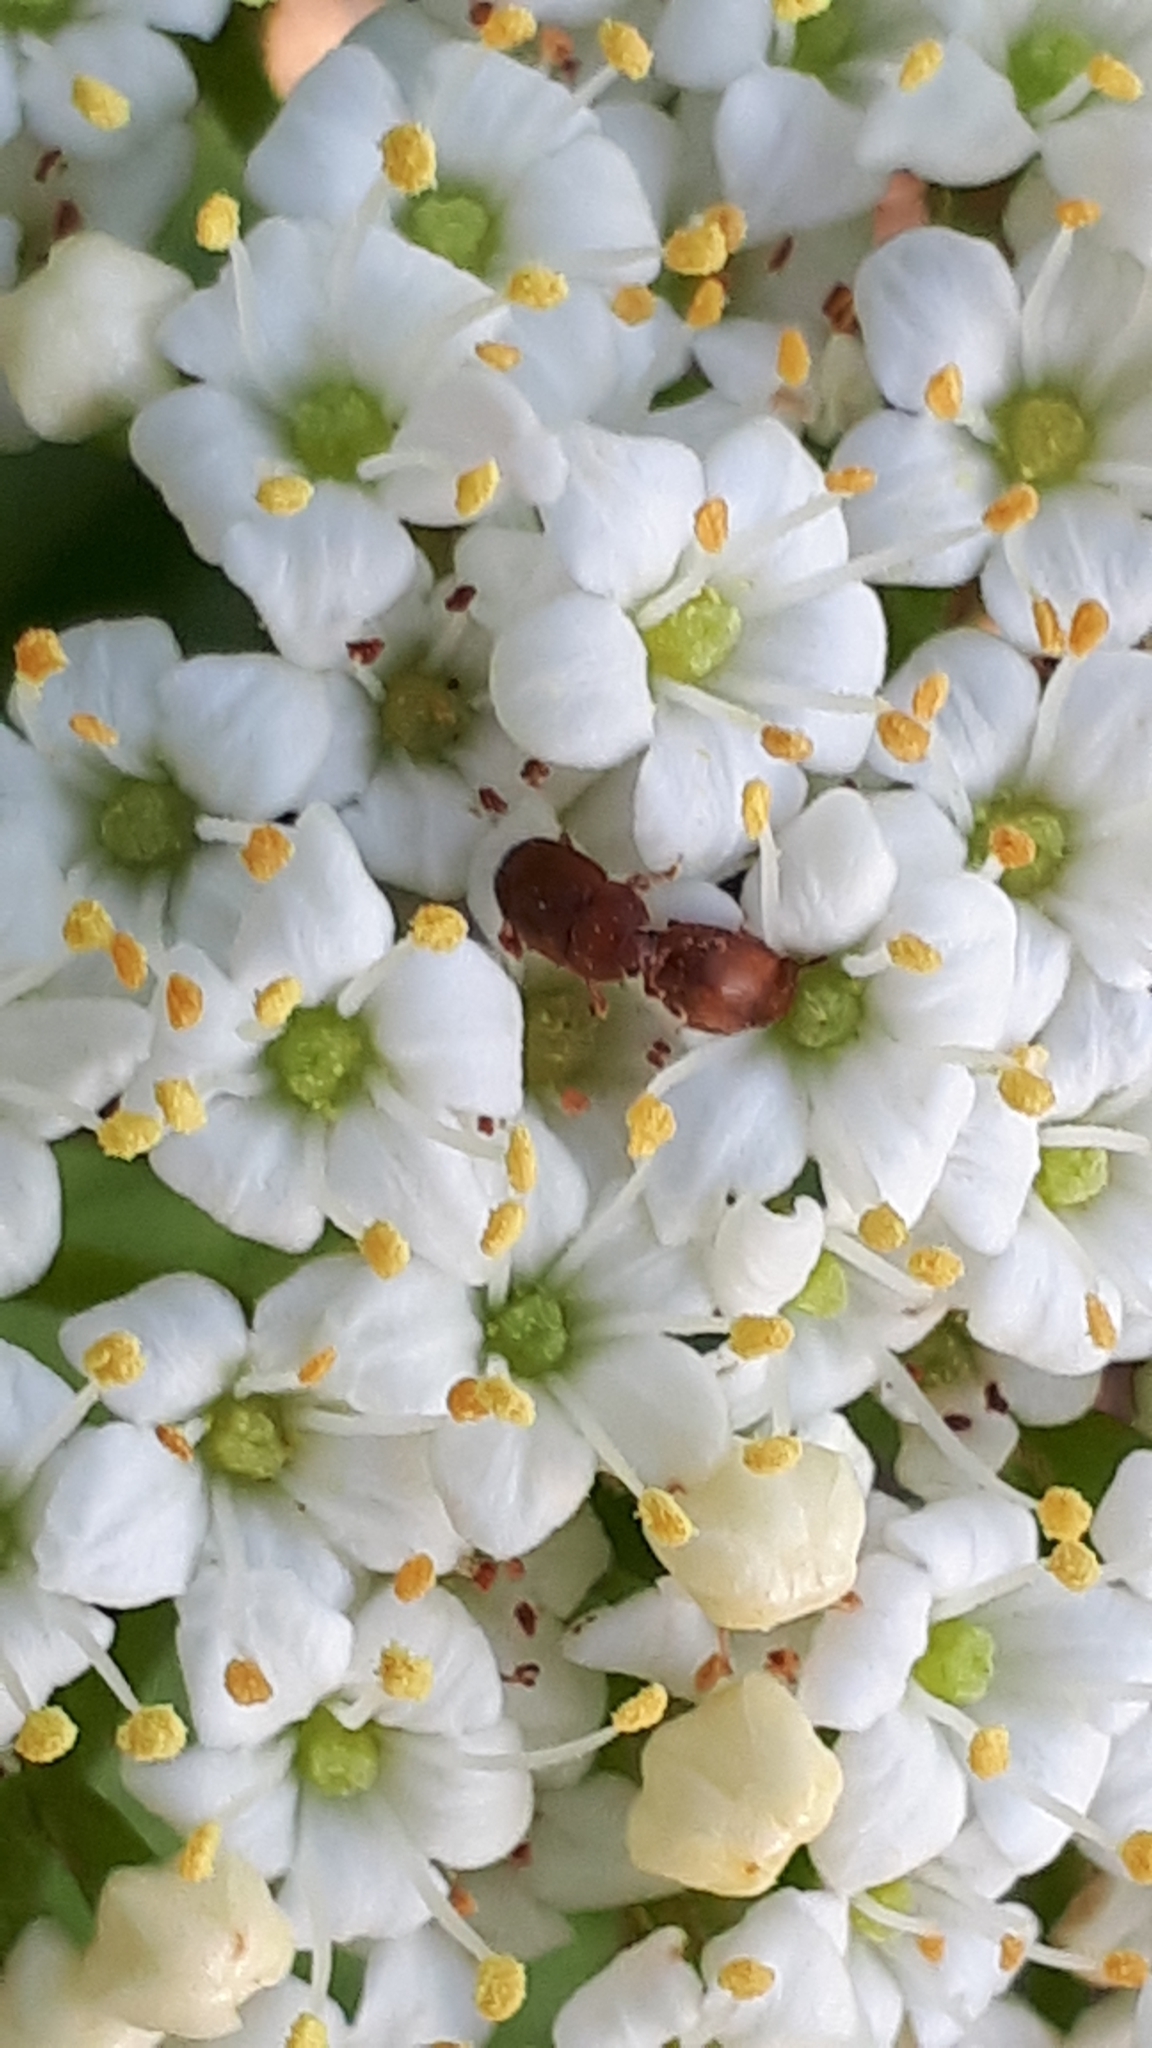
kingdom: Animalia
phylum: Arthropoda
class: Insecta
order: Coleoptera
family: Nitidulidae
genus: Epuraea
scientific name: Epuraea aestiva
